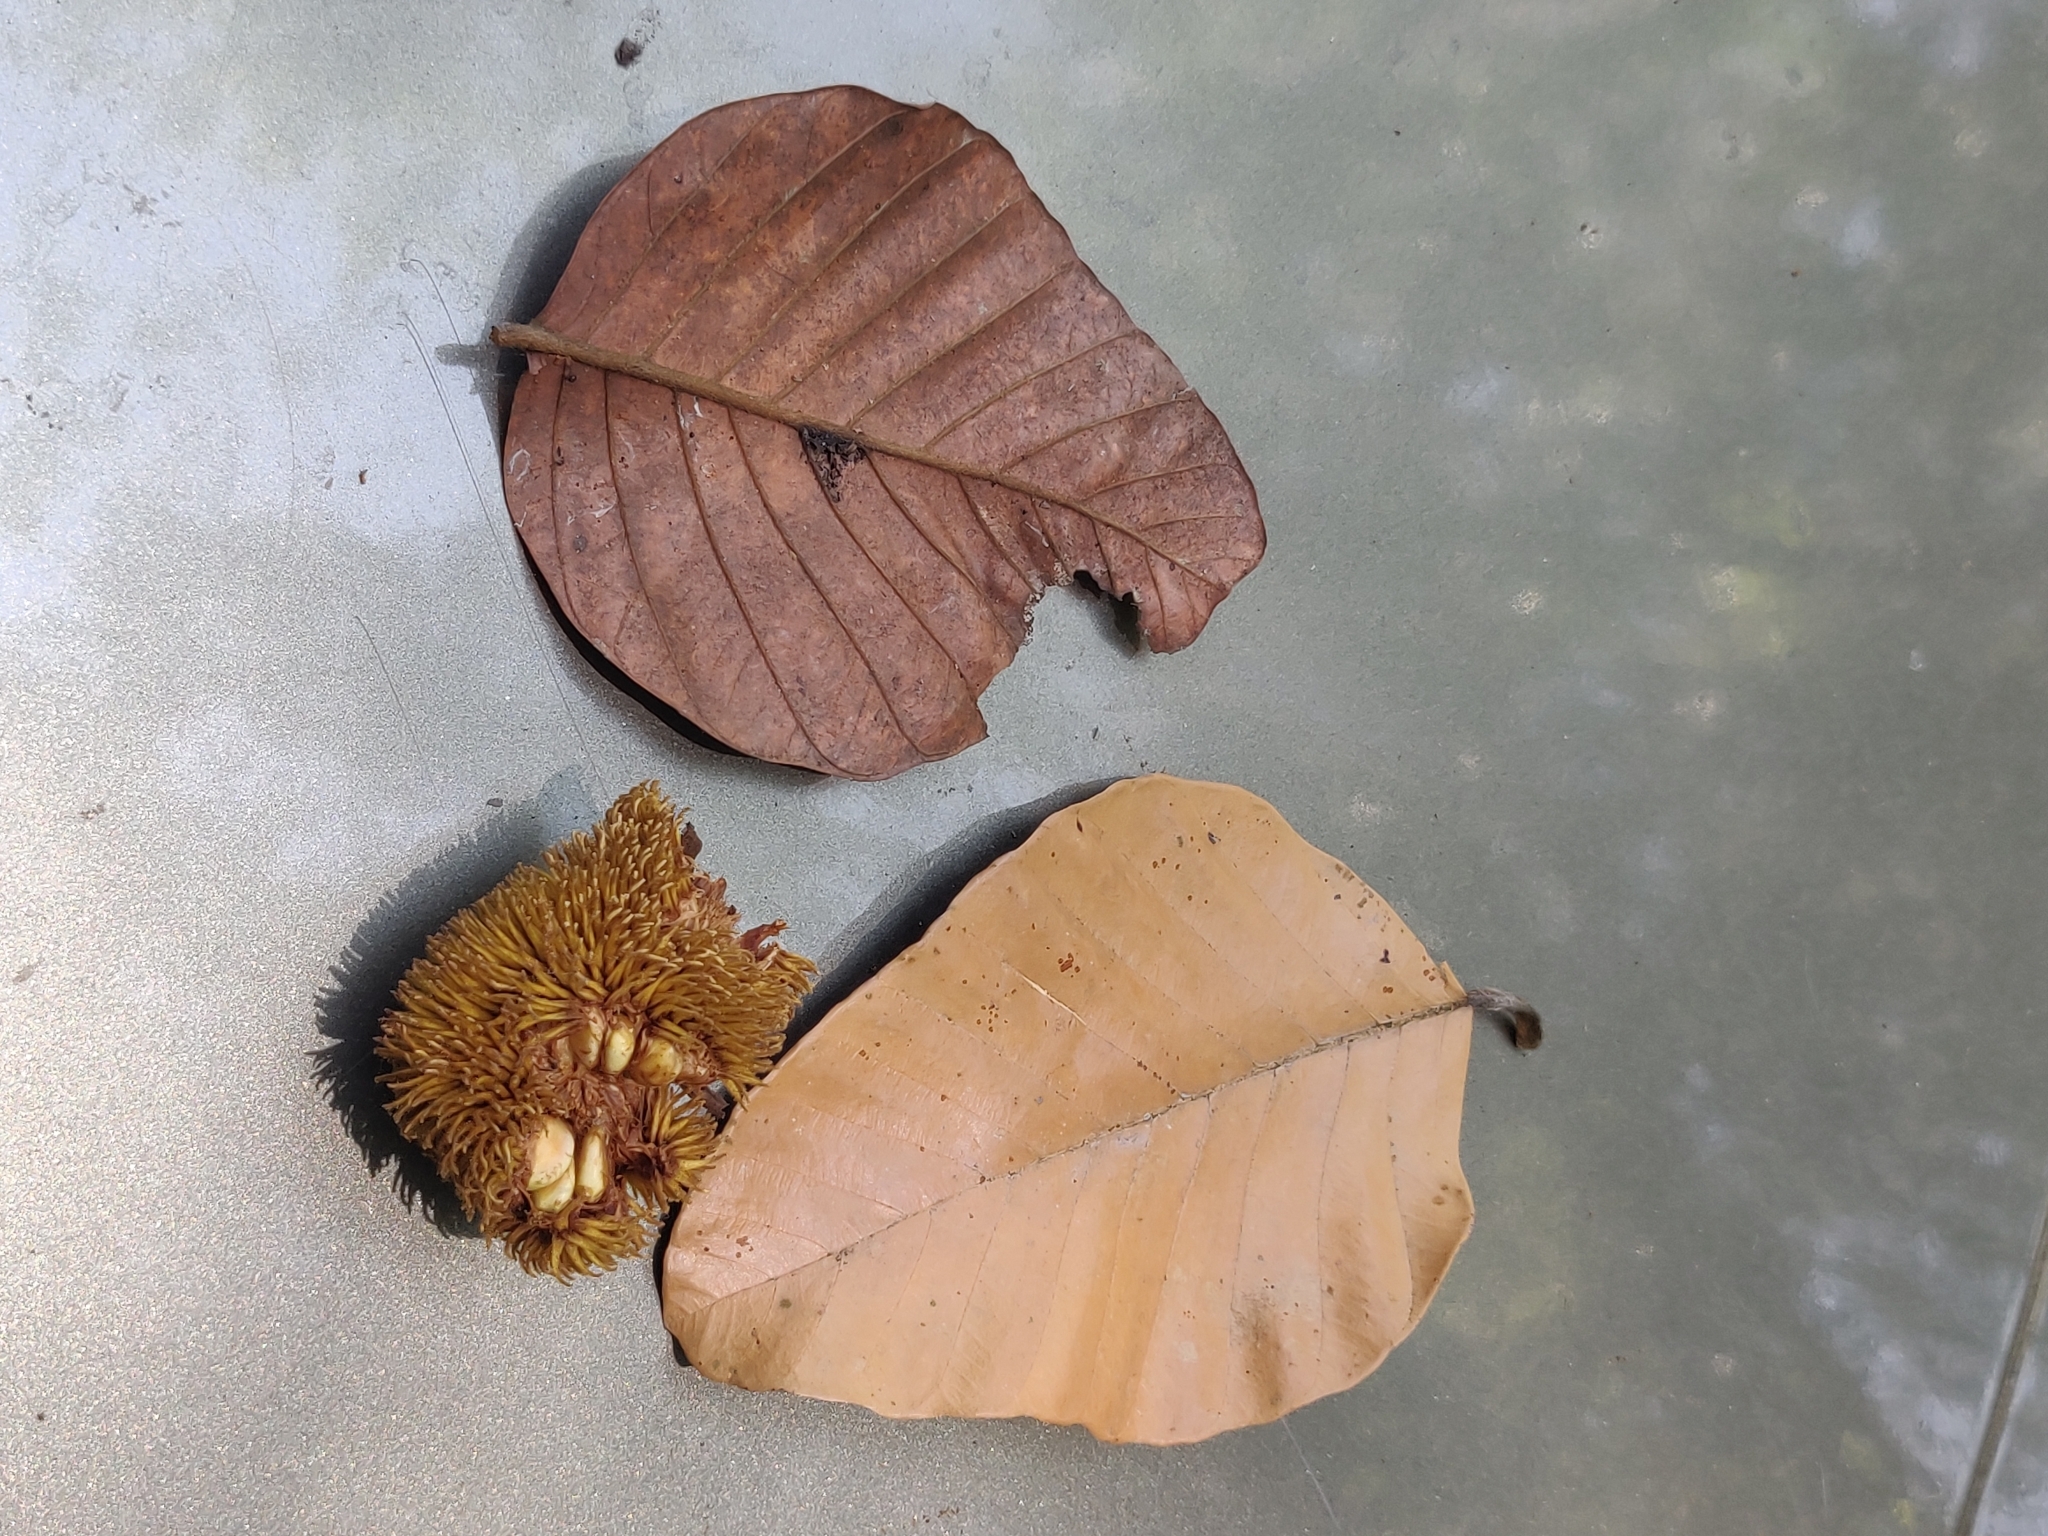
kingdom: Plantae
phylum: Tracheophyta
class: Magnoliopsida
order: Rosales
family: Moraceae
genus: Artocarpus
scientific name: Artocarpus hirsutus
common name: Hairy bread-fruit tree
